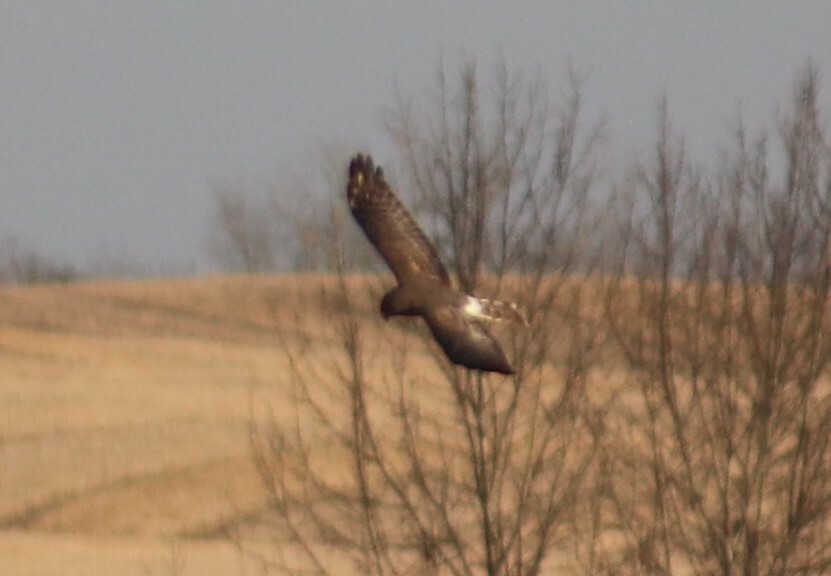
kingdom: Animalia
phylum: Chordata
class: Aves
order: Accipitriformes
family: Accipitridae
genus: Circus
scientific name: Circus cyaneus
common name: Hen harrier
